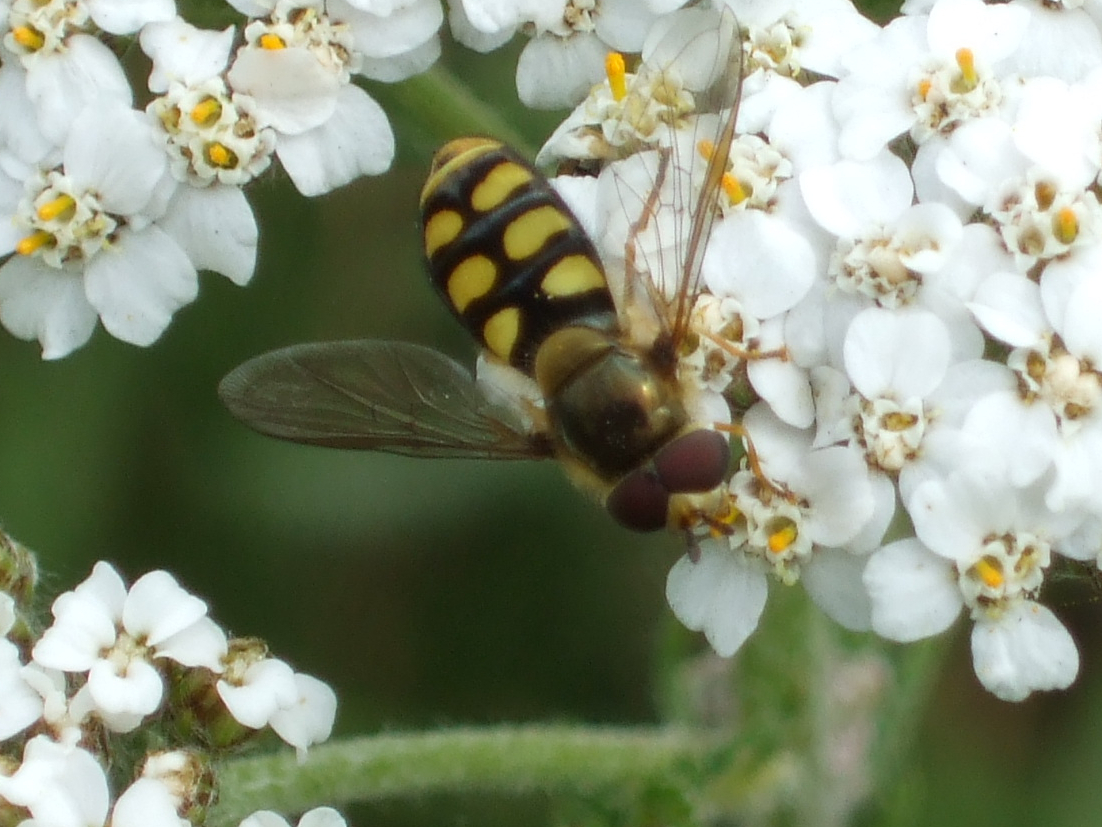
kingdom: Animalia
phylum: Arthropoda
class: Insecta
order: Diptera
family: Syrphidae
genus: Eupeodes
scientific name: Eupeodes luniger
